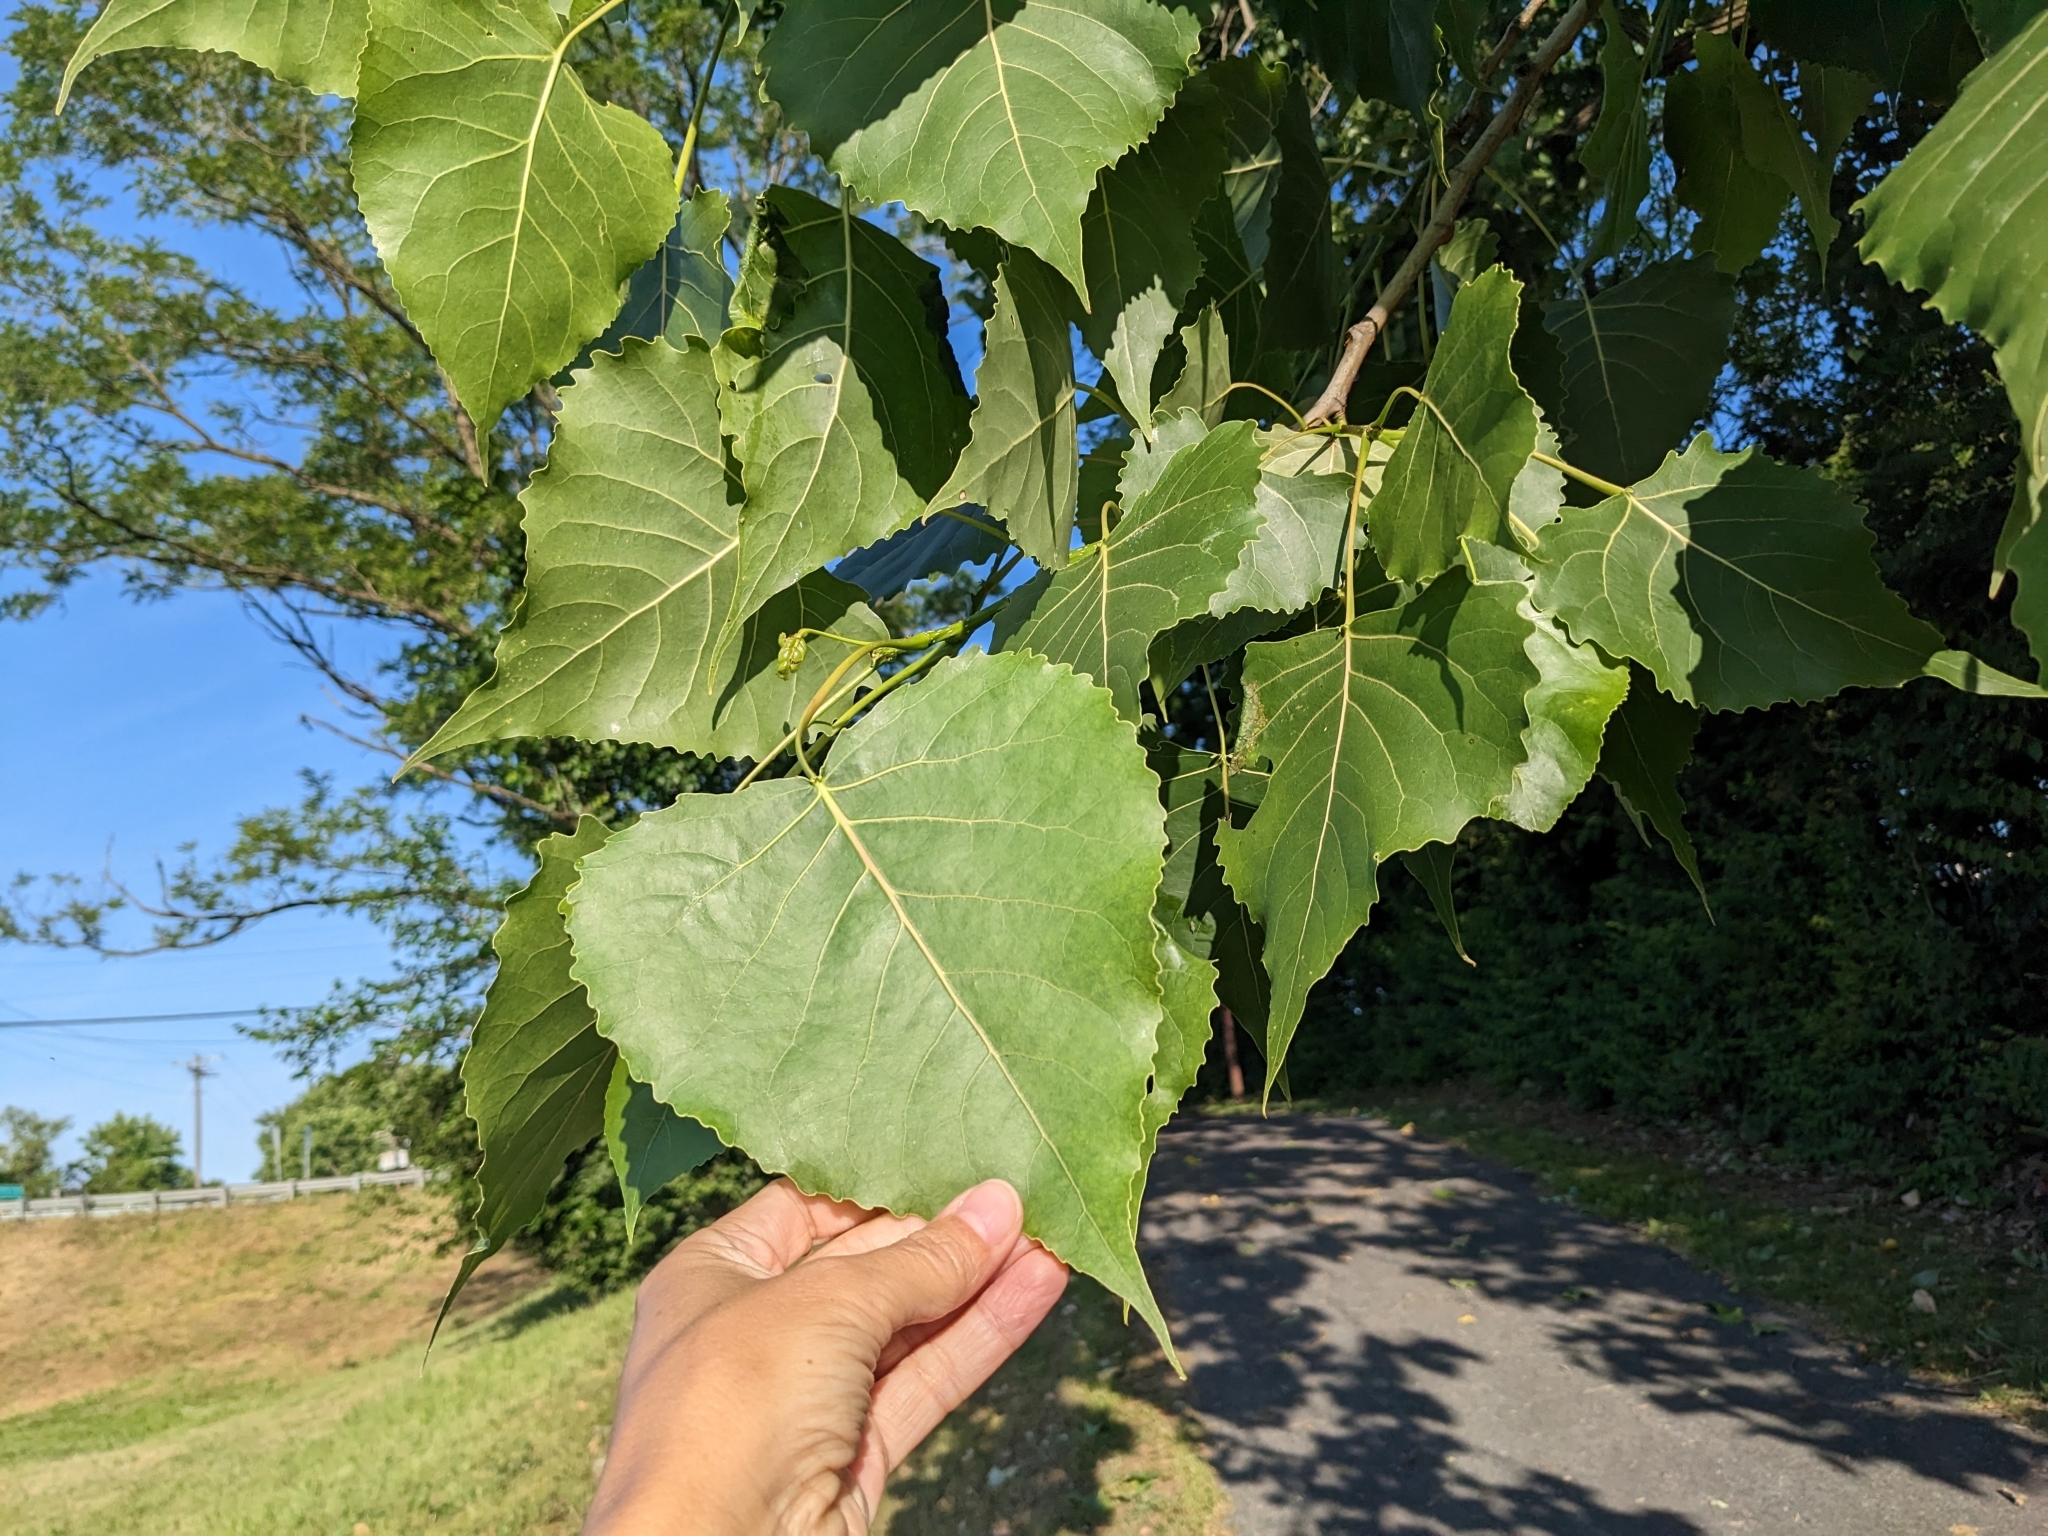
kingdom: Plantae
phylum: Tracheophyta
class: Magnoliopsida
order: Malpighiales
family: Salicaceae
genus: Populus
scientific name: Populus deltoides
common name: Eastern cottonwood
